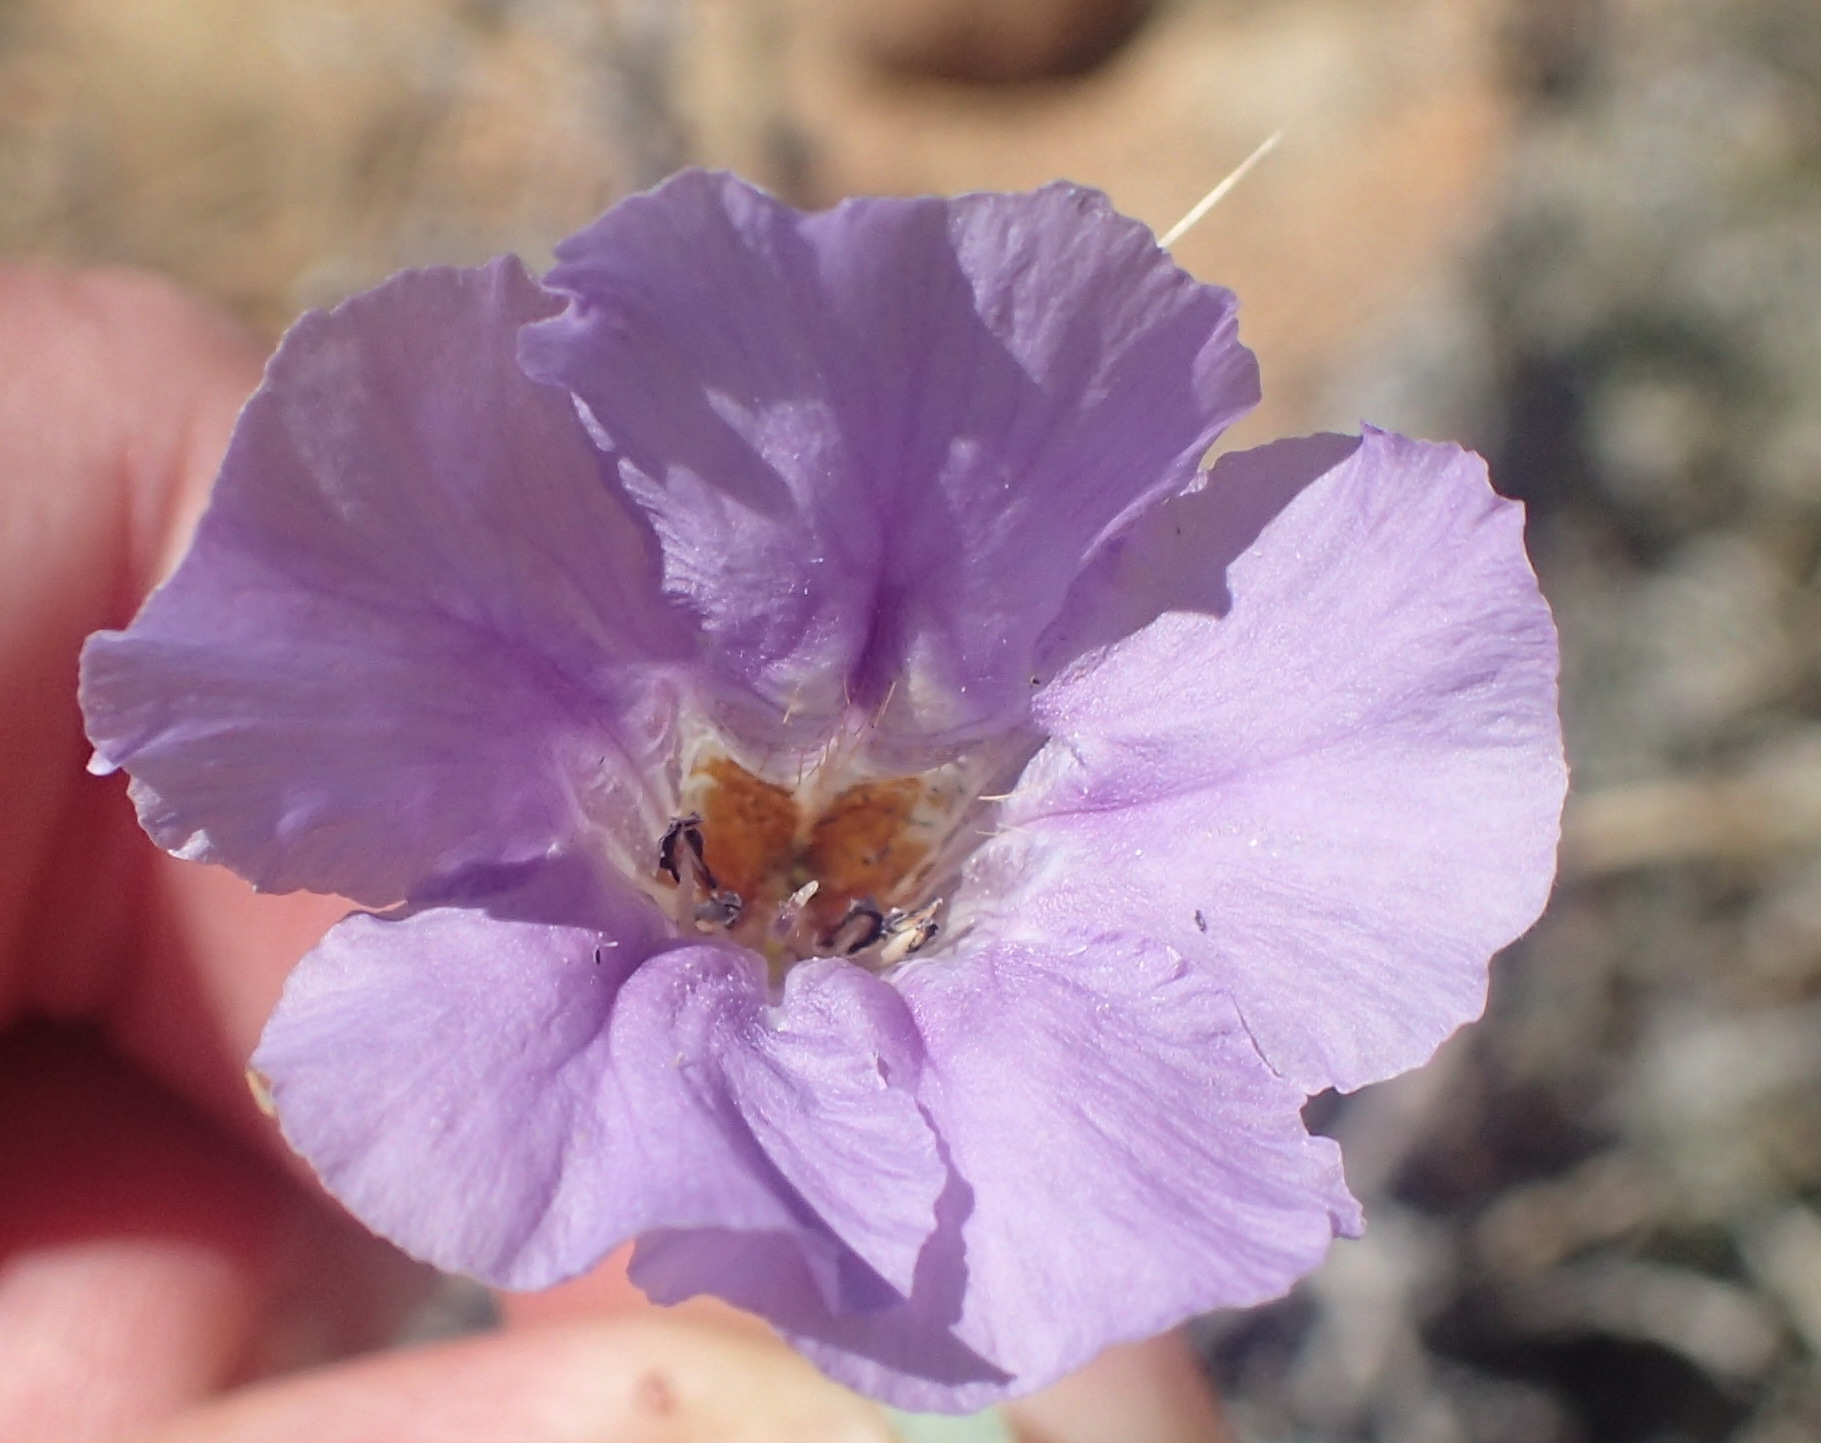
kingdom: Plantae
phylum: Tracheophyta
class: Magnoliopsida
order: Lamiales
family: Acanthaceae
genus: Petalidium
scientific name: Petalidium lucens
